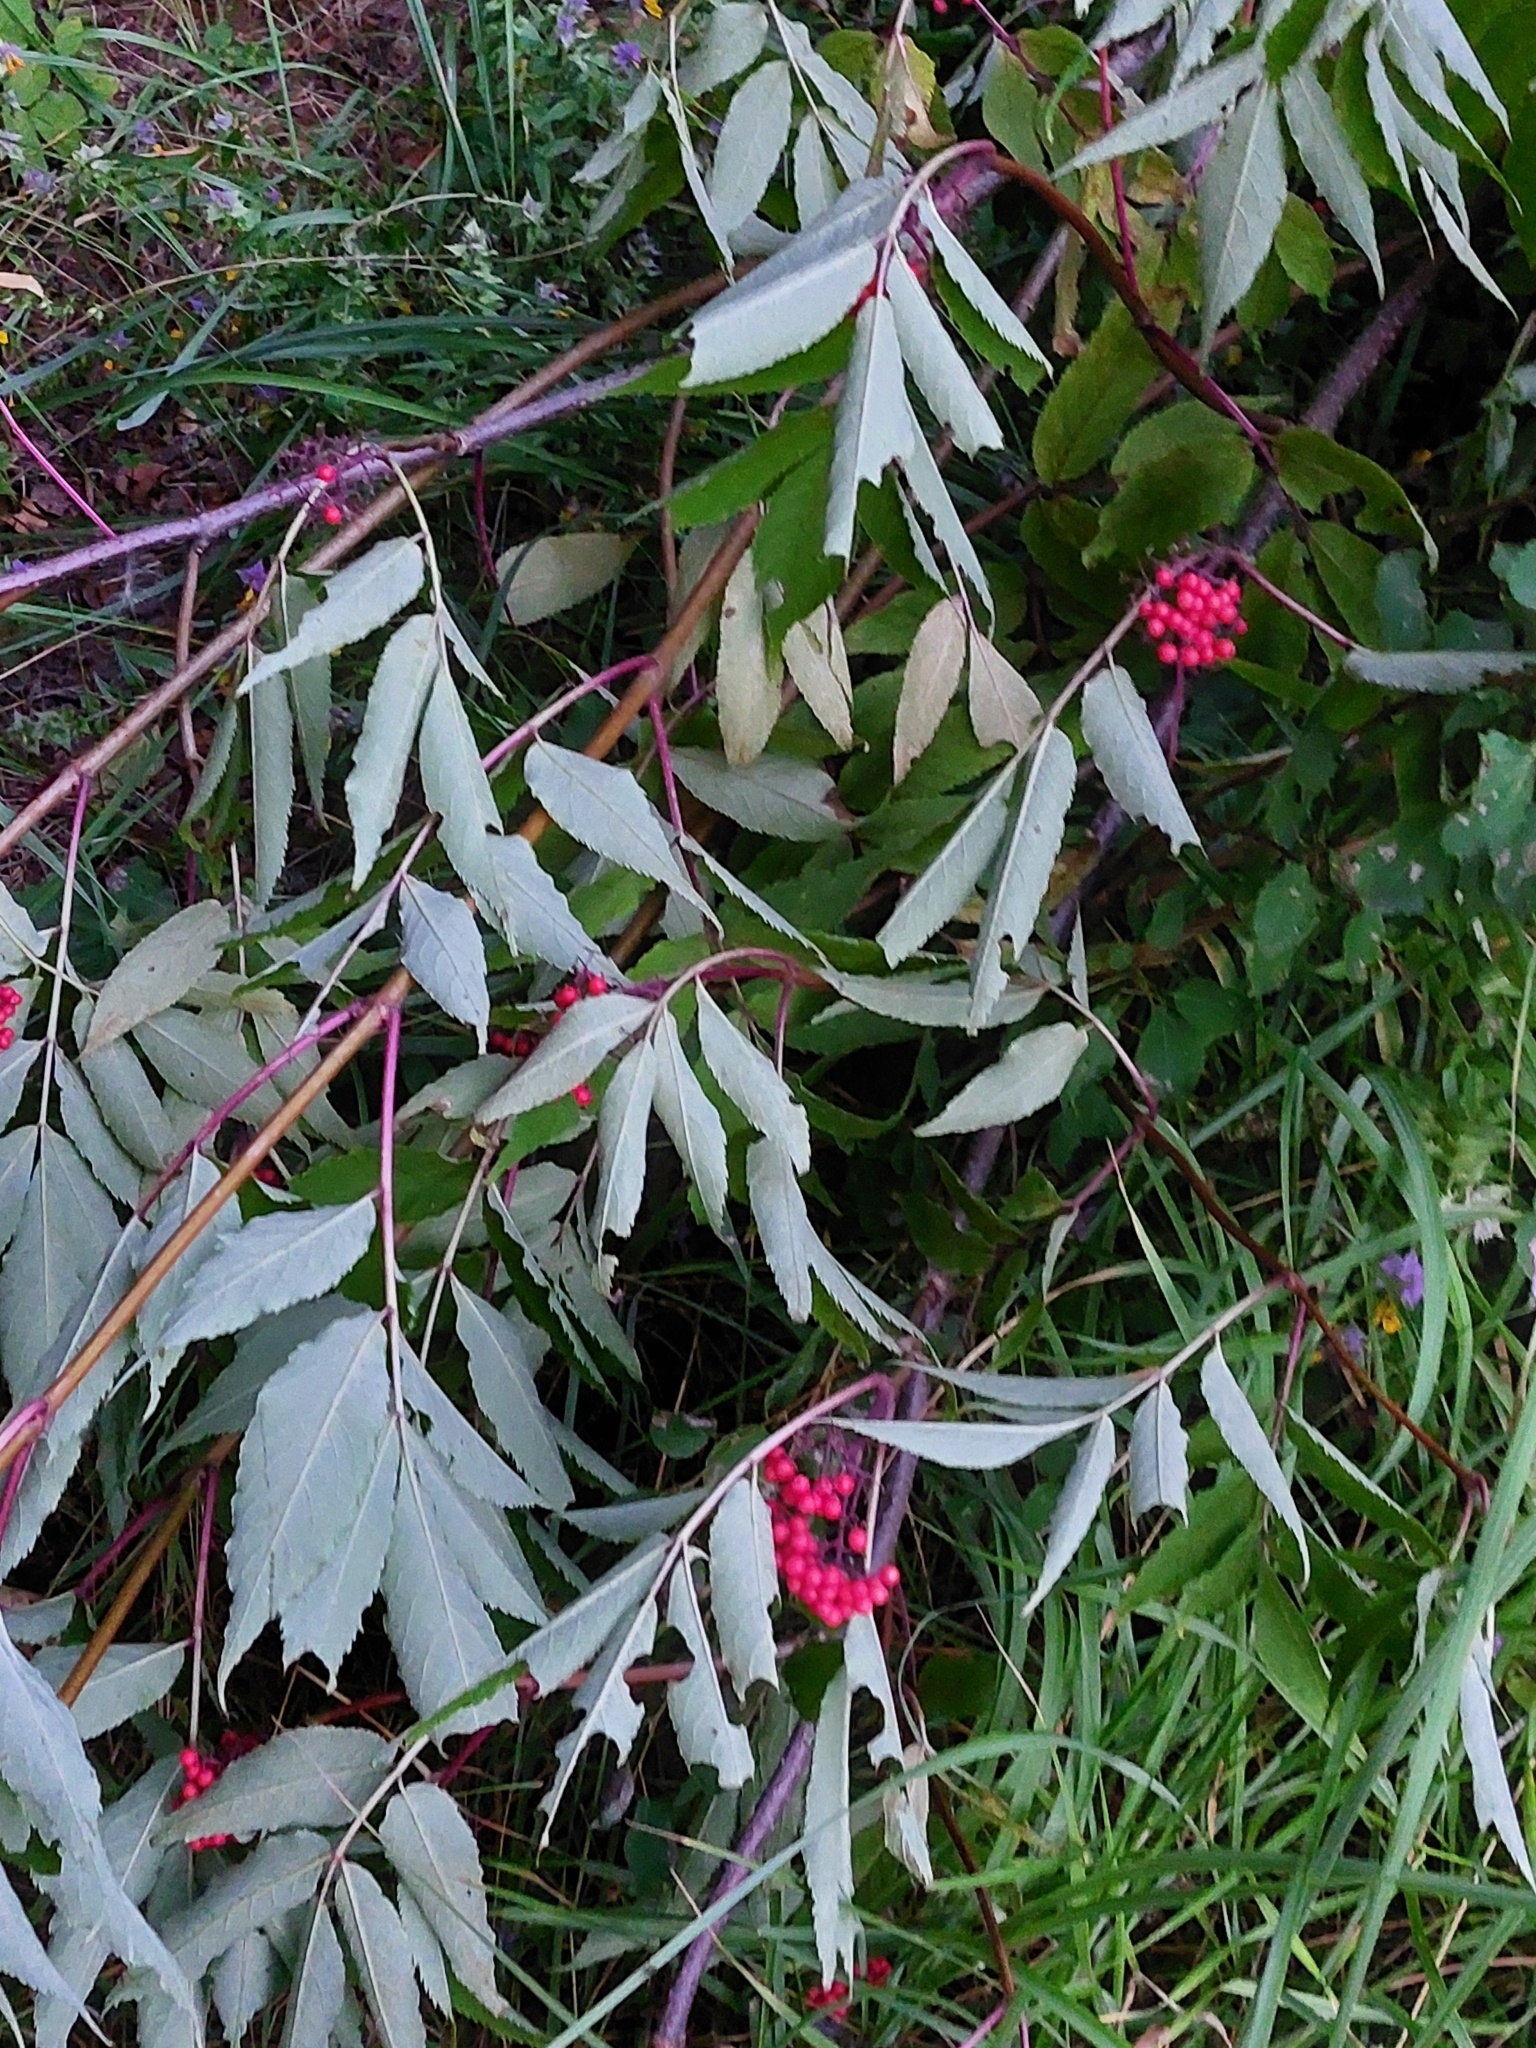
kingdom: Plantae
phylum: Tracheophyta
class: Magnoliopsida
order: Dipsacales
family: Viburnaceae
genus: Sambucus
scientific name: Sambucus racemosa
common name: Red-berried elder
